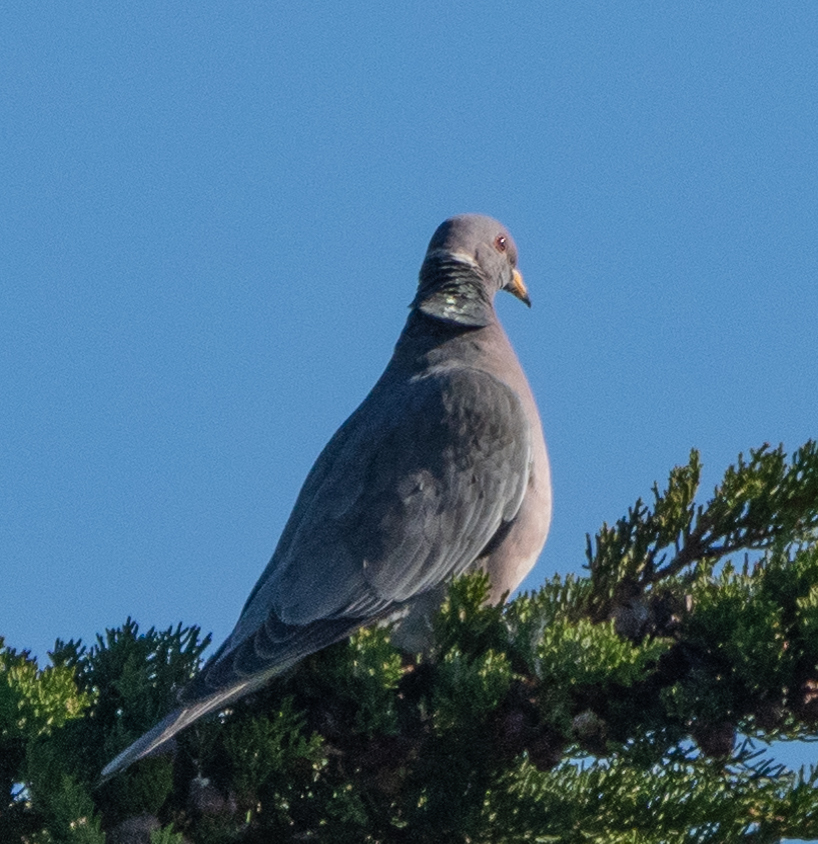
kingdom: Animalia
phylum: Chordata
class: Aves
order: Columbiformes
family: Columbidae
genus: Patagioenas
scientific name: Patagioenas fasciata
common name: Band-tailed pigeon
